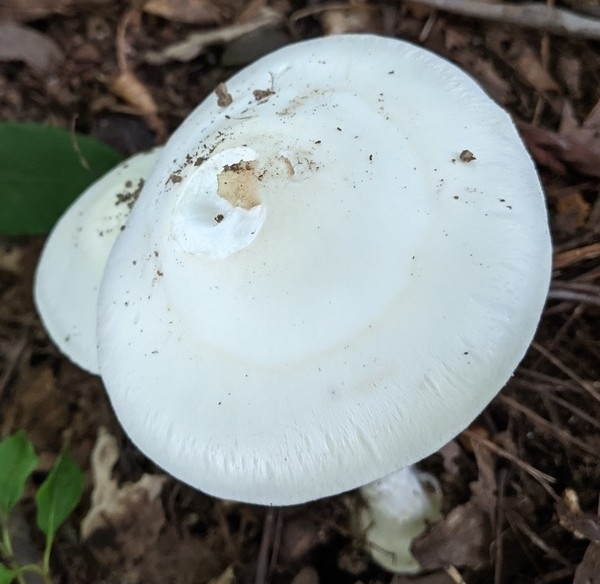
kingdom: Fungi
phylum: Basidiomycota
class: Agaricomycetes
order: Agaricales
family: Amanitaceae
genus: Amanita
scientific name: Amanita bisporigera
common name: Eastern north american destroying angel
